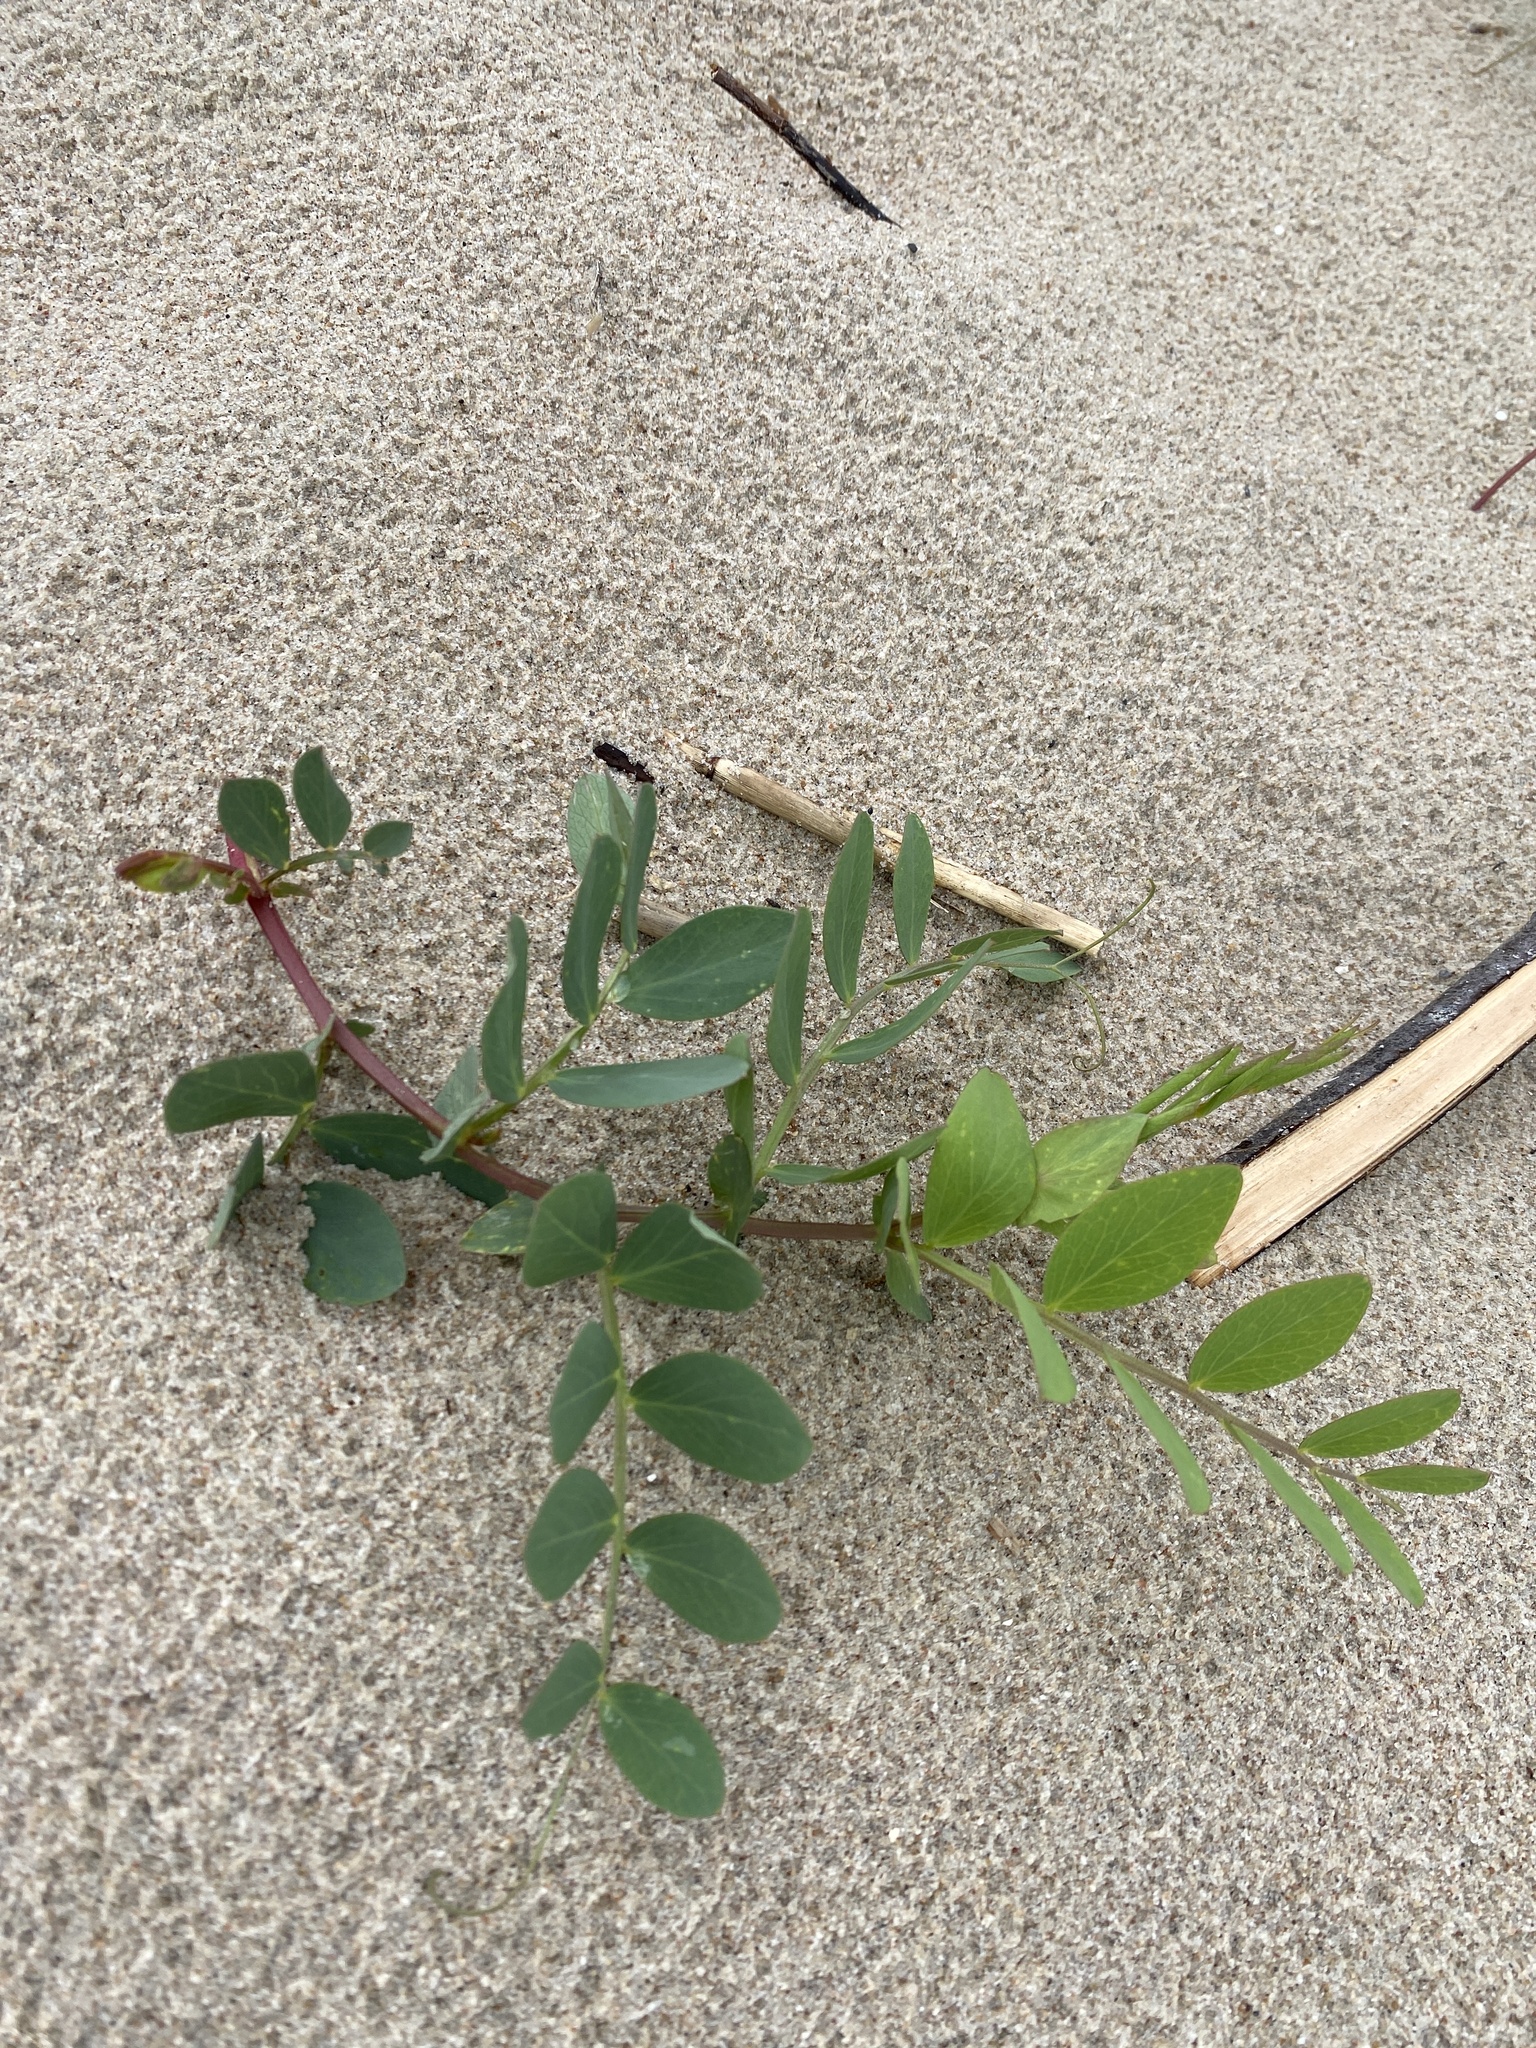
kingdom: Plantae
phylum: Tracheophyta
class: Magnoliopsida
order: Fabales
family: Fabaceae
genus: Lathyrus
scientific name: Lathyrus japonicus
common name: Sea pea
